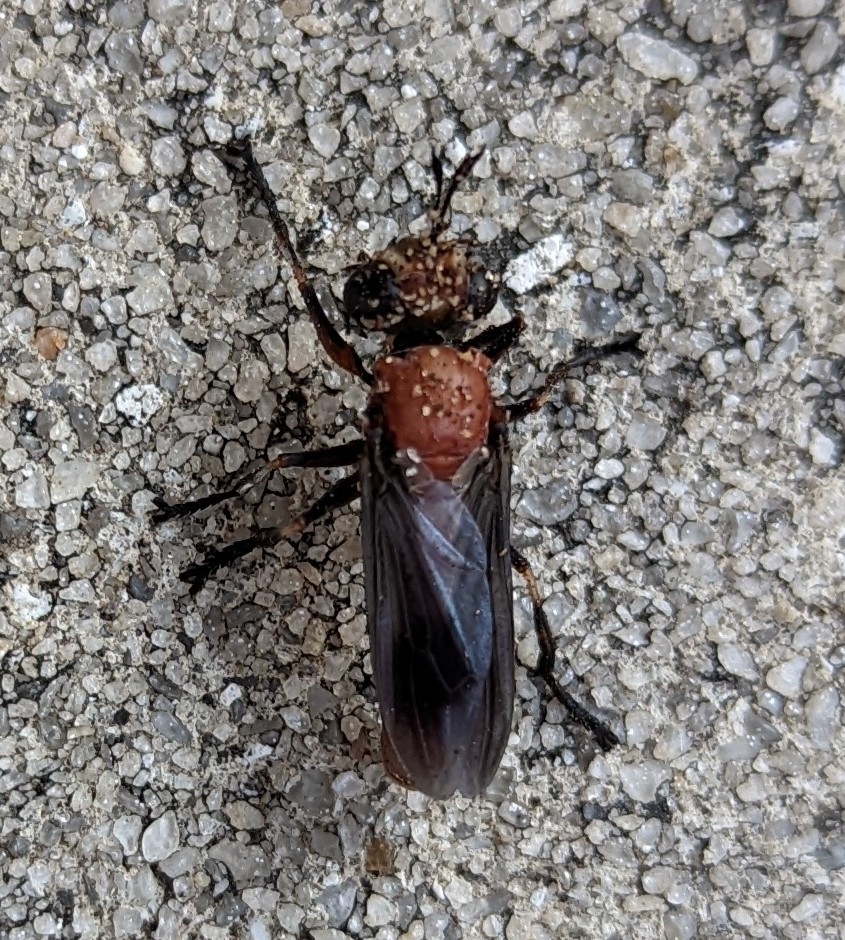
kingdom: Animalia
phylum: Arthropoda
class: Insecta
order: Diptera
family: Conopidae
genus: Physocephala
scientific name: Physocephala floridana
